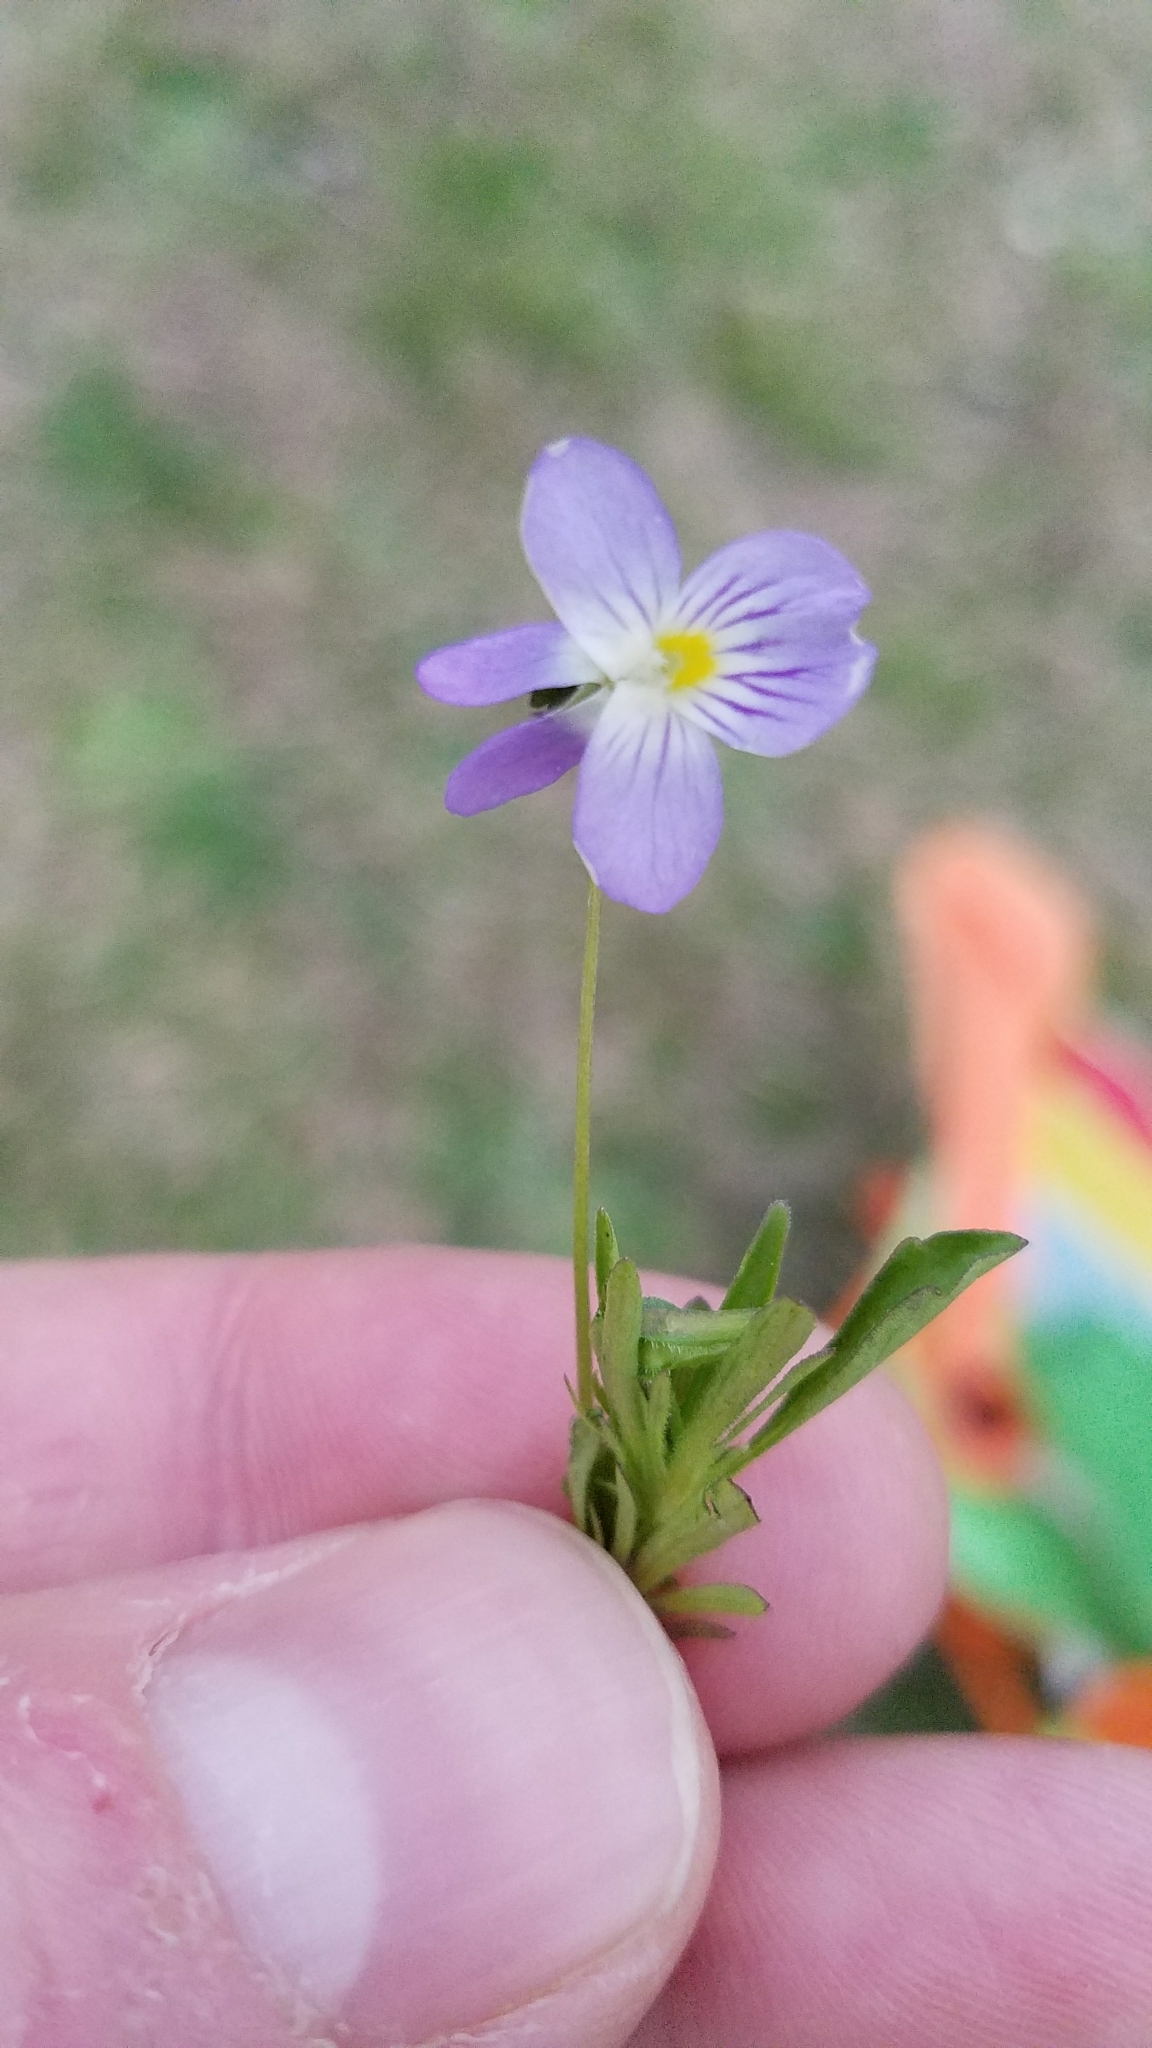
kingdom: Plantae
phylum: Tracheophyta
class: Magnoliopsida
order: Malpighiales
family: Violaceae
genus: Viola
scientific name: Viola rafinesquei
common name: American field pansy
